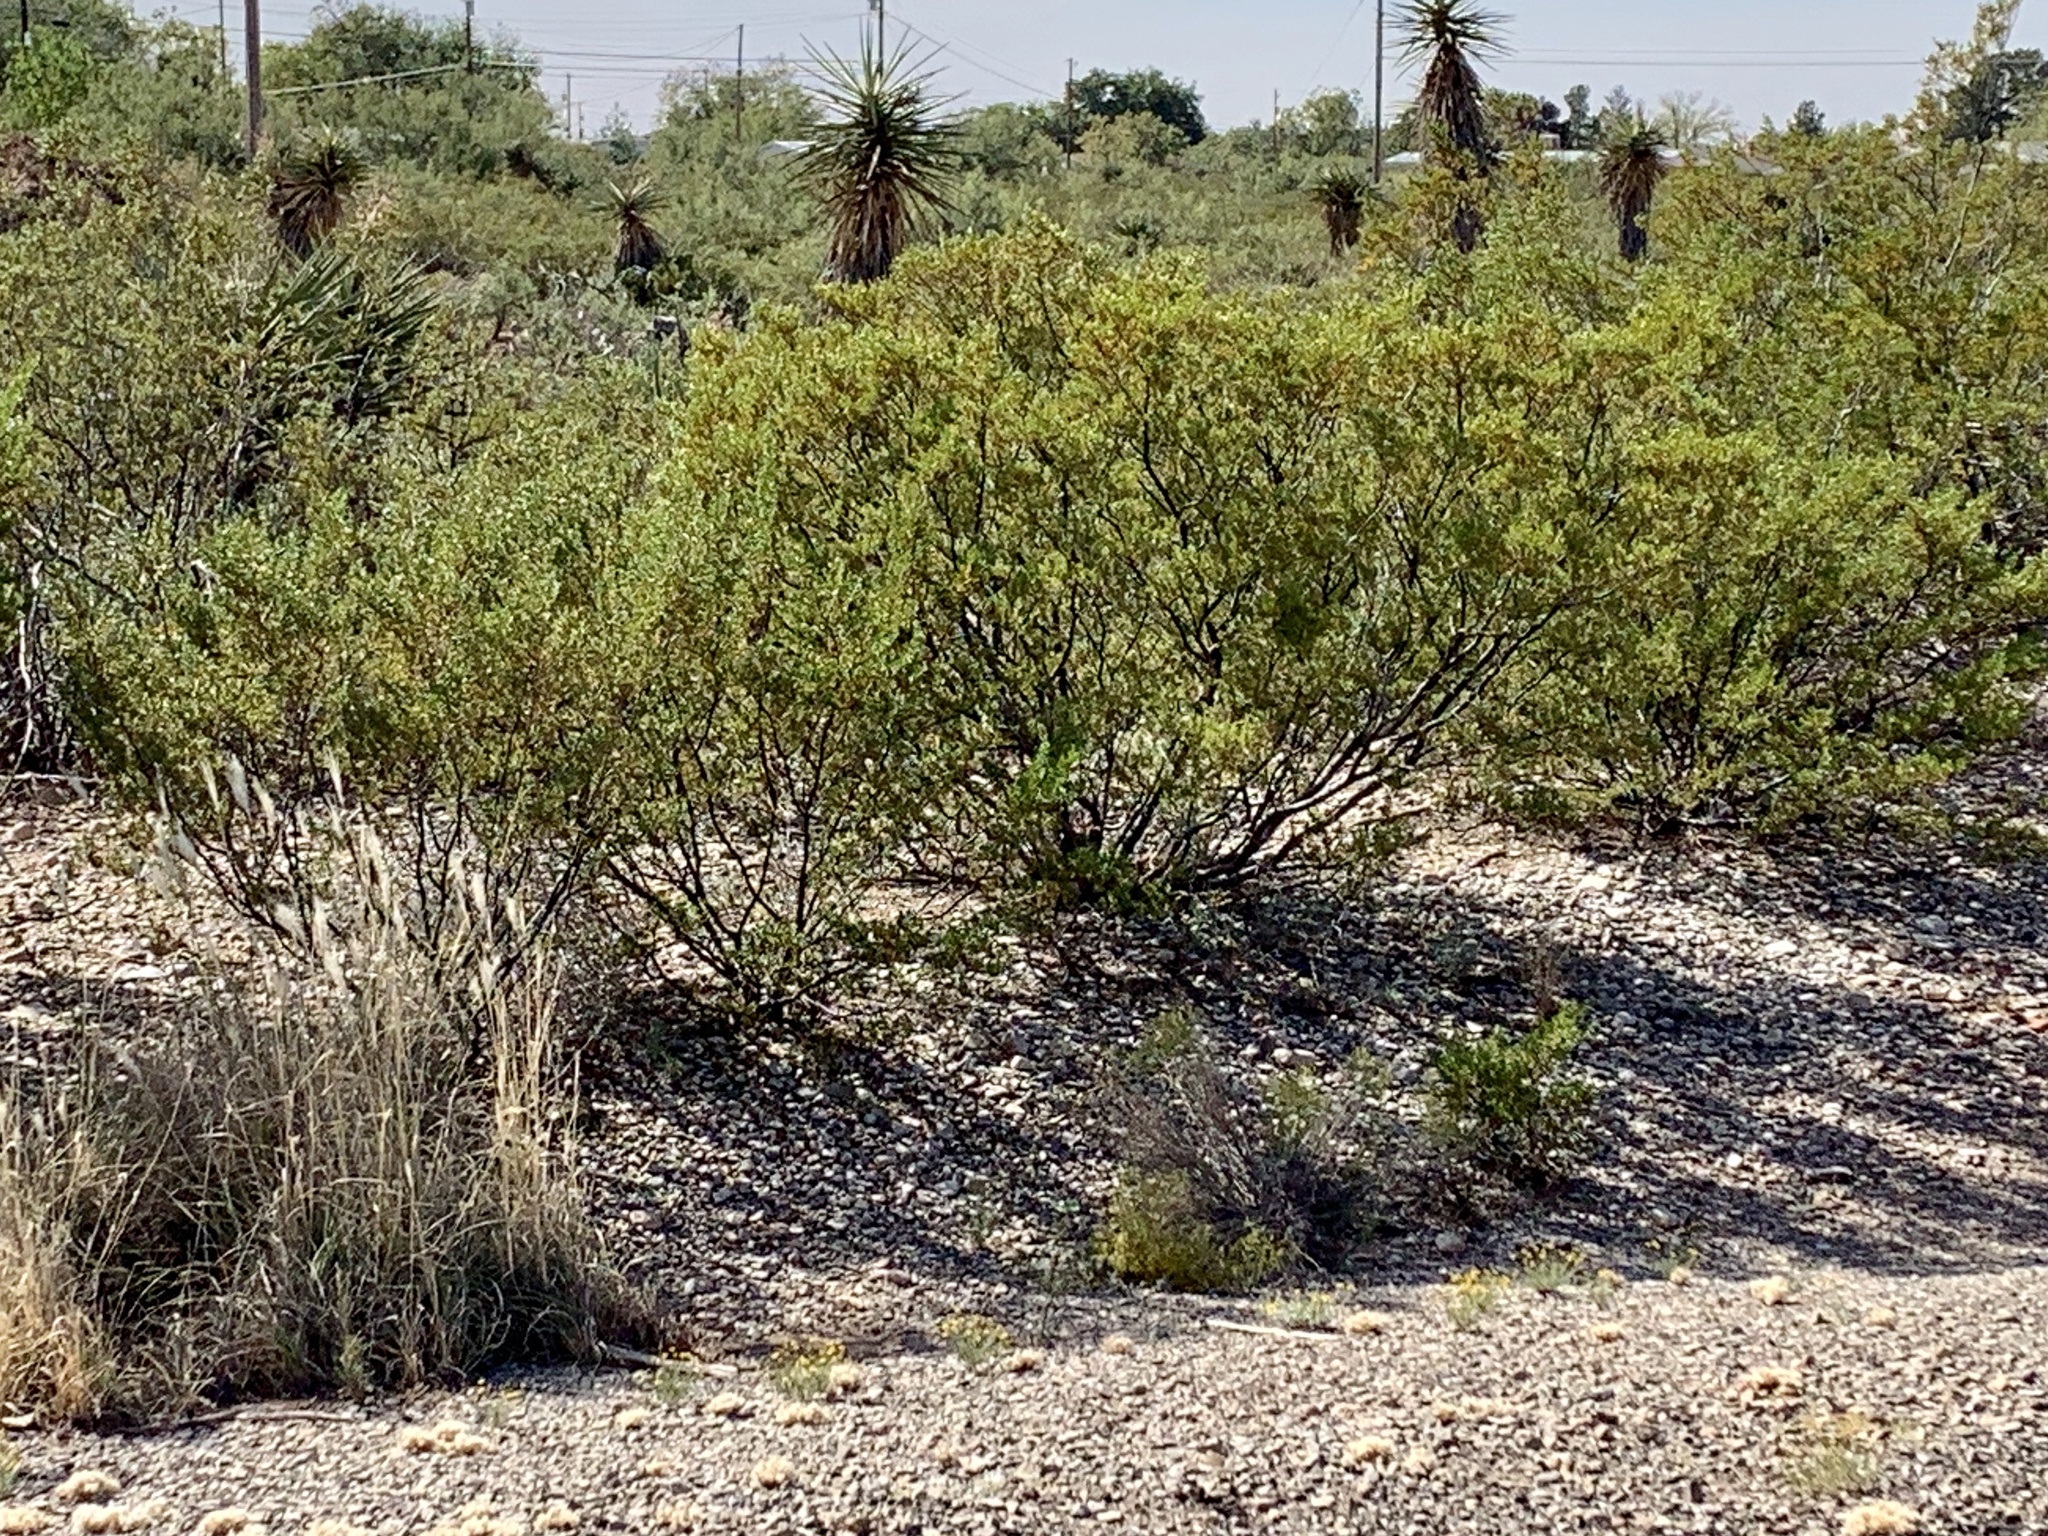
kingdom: Plantae
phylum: Tracheophyta
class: Magnoliopsida
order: Zygophyllales
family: Zygophyllaceae
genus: Larrea
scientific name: Larrea tridentata
